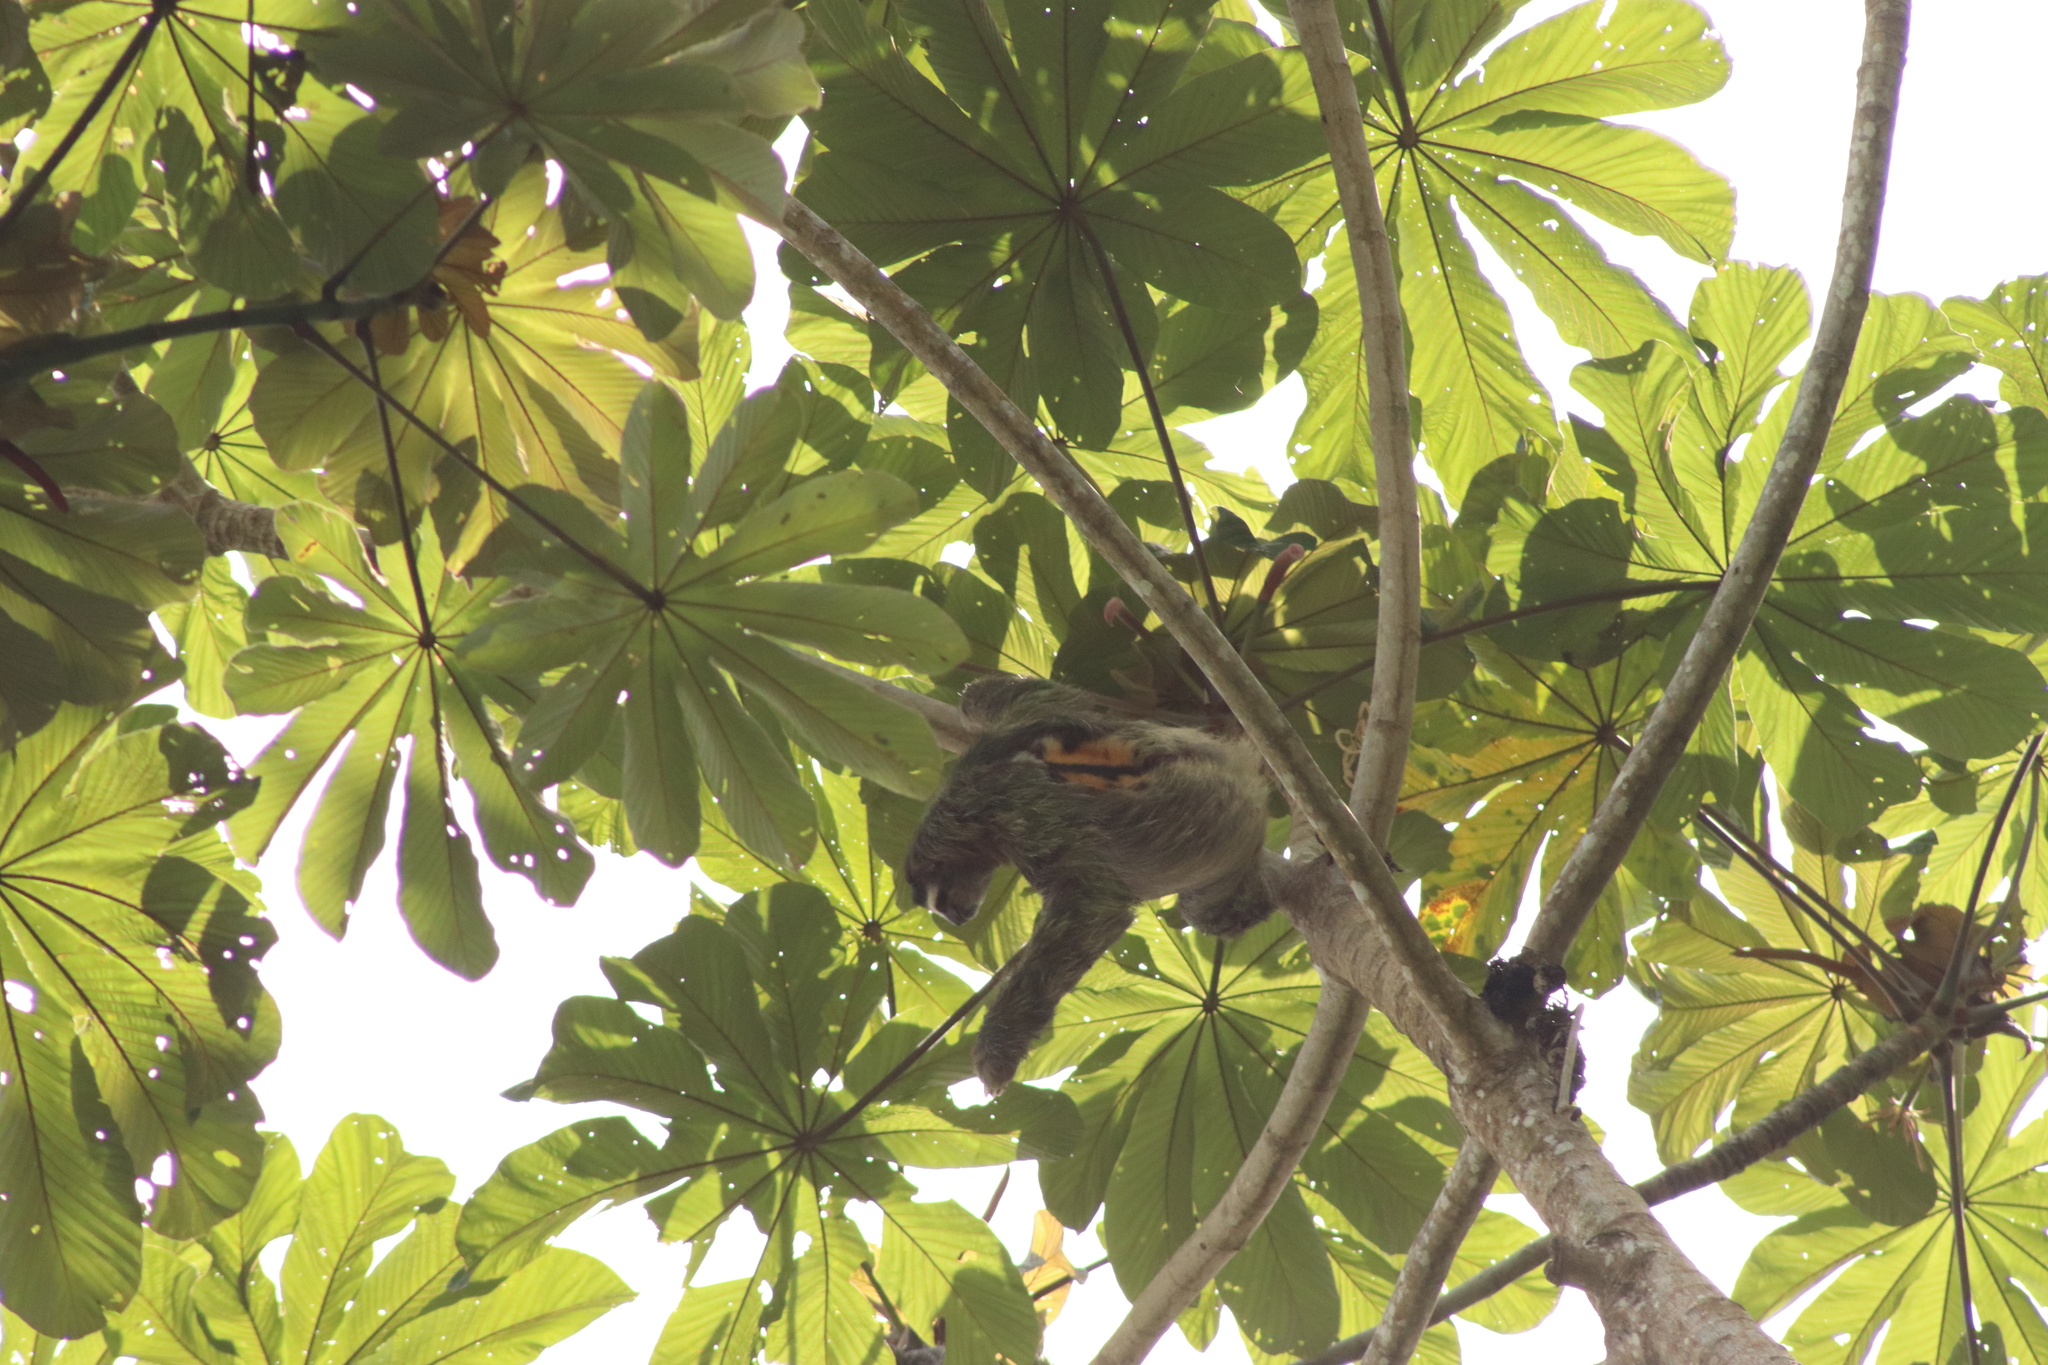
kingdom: Animalia
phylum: Chordata
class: Mammalia
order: Pilosa
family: Bradypodidae
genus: Bradypus
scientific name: Bradypus variegatus
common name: Brown-throated three-toed sloth
